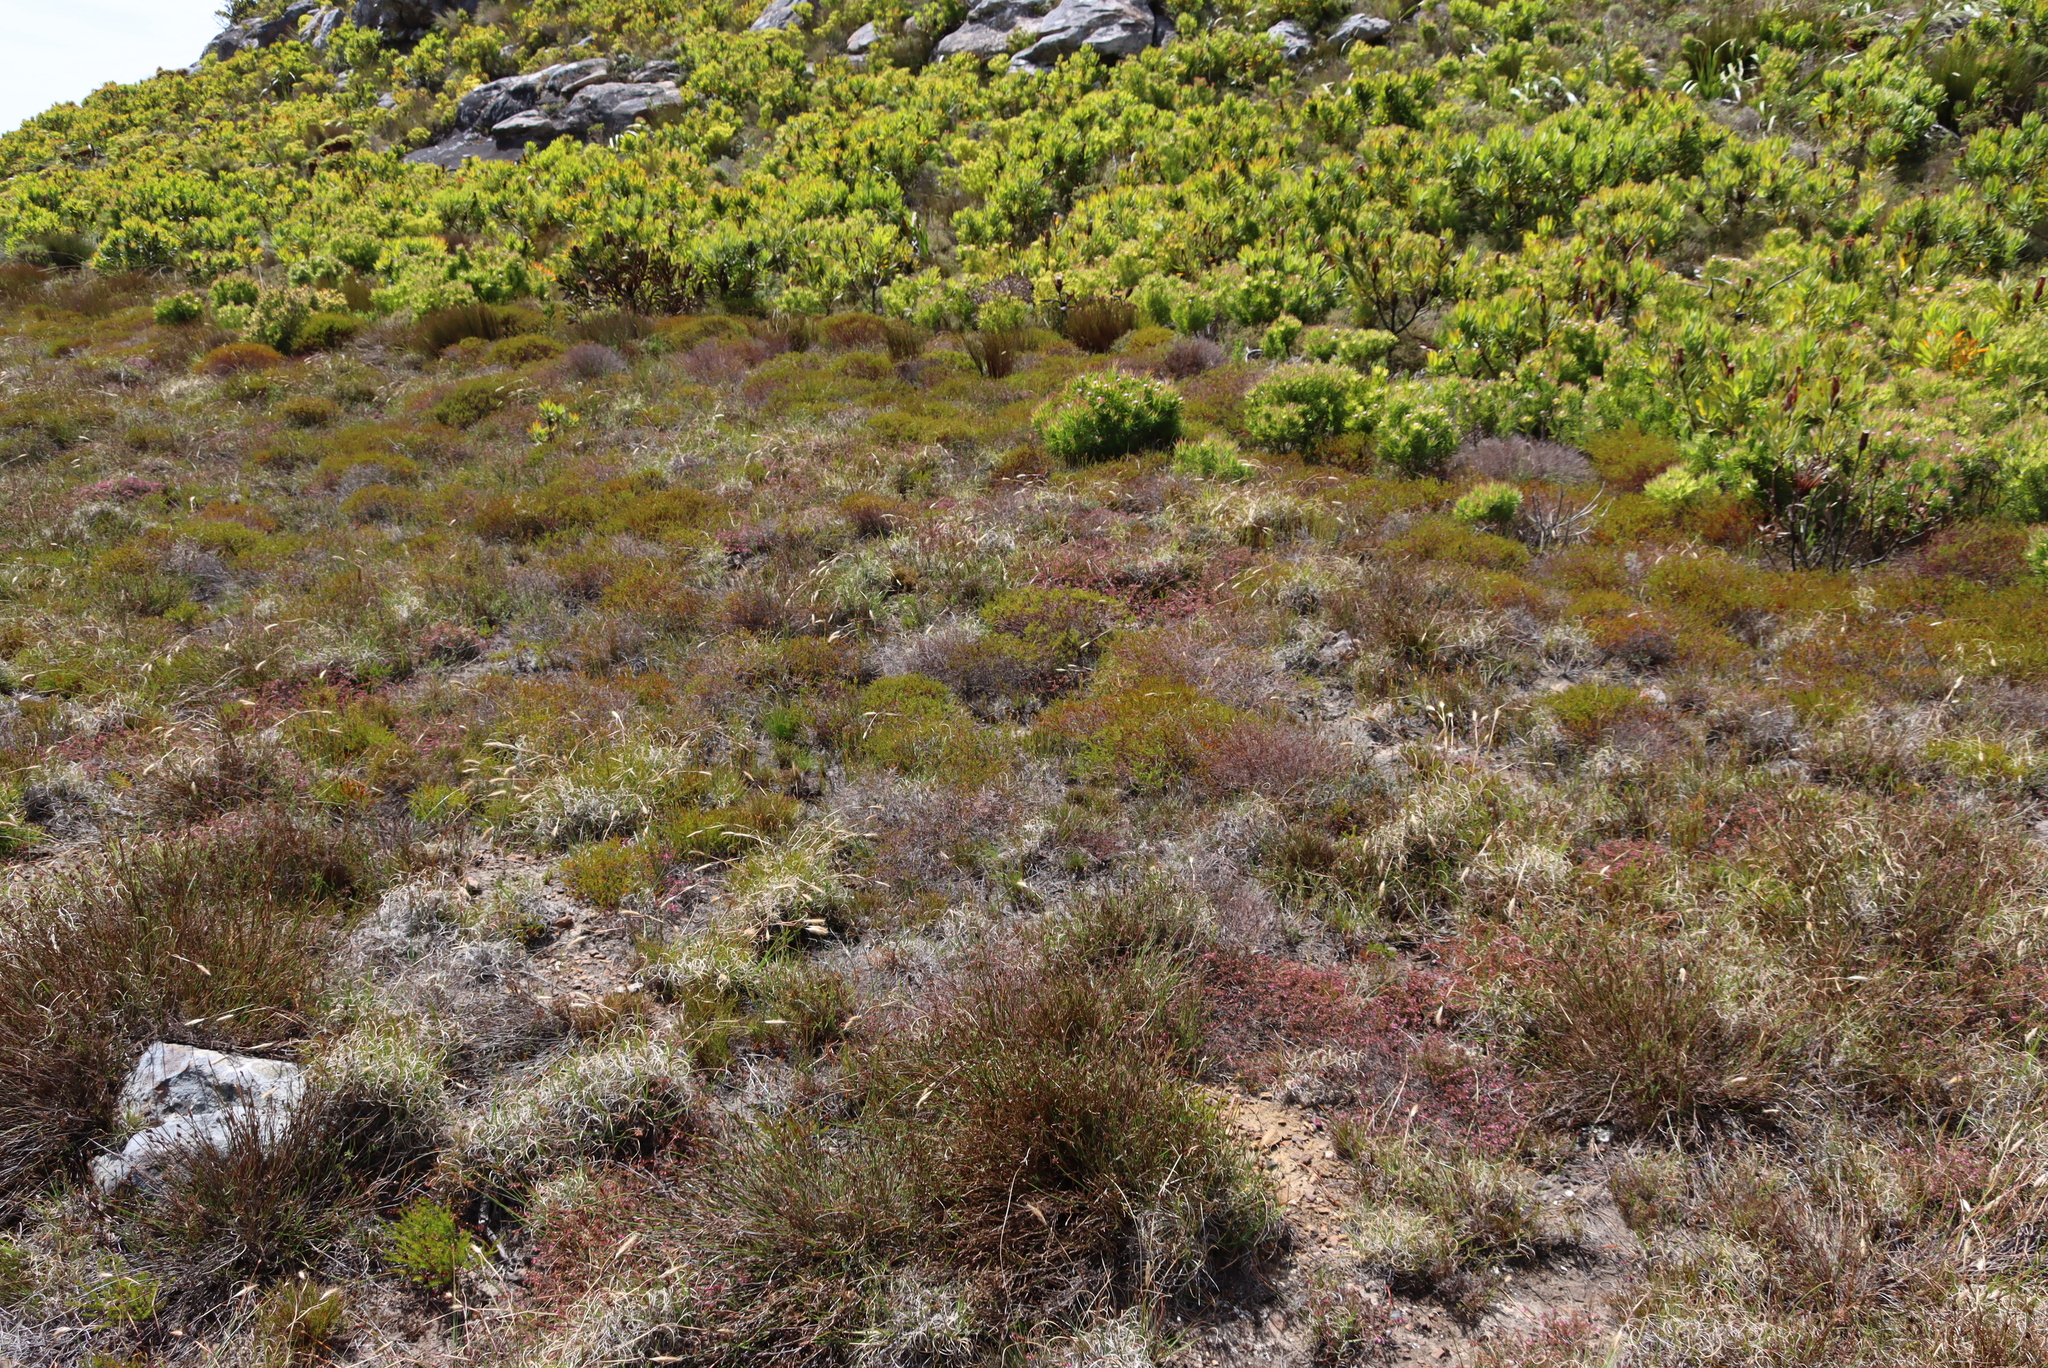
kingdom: Plantae
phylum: Tracheophyta
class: Magnoliopsida
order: Ericales
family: Ericaceae
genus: Erica
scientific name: Erica thimifolia
